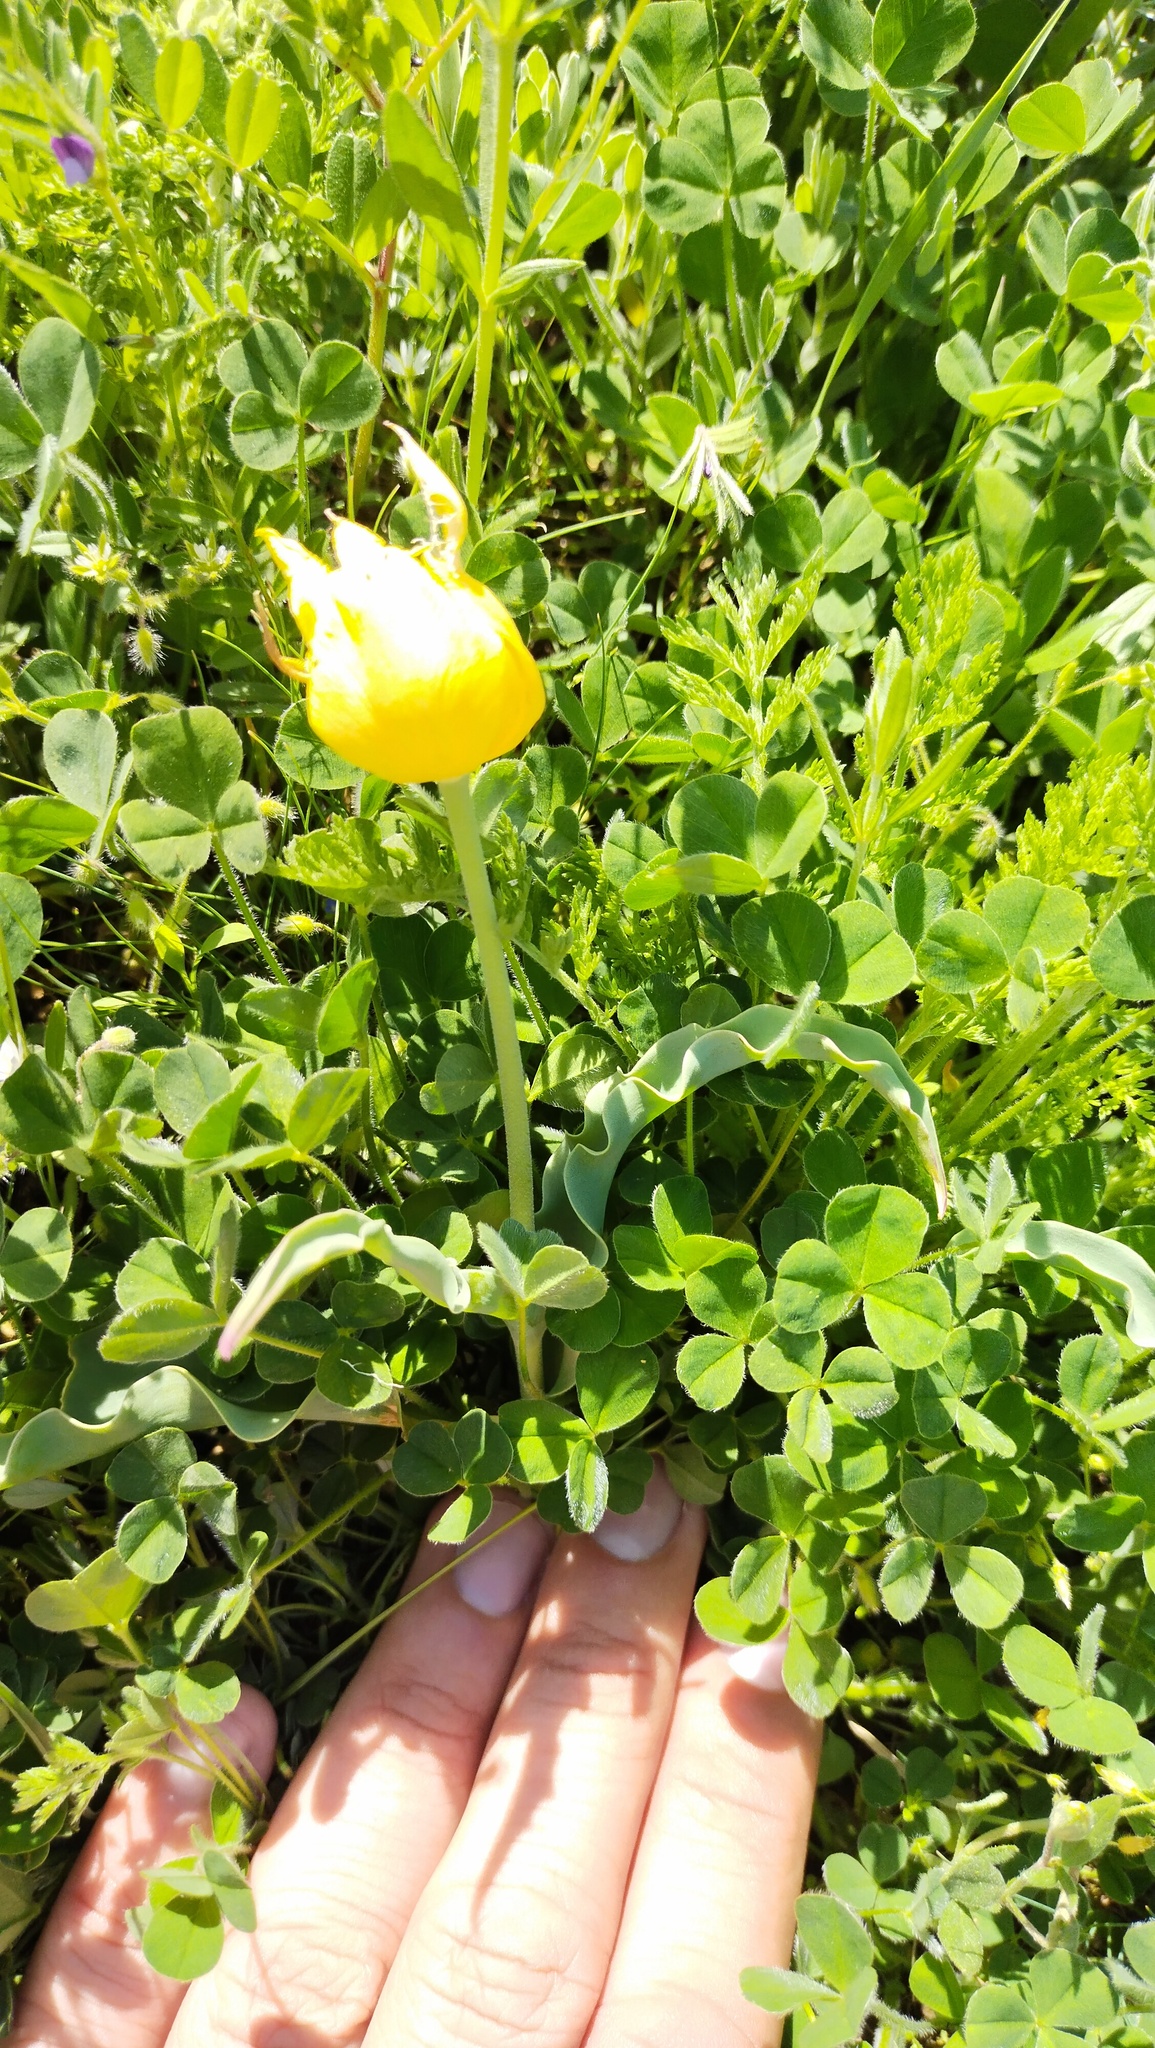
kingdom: Plantae
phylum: Tracheophyta
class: Liliopsida
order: Liliales
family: Liliaceae
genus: Tulipa
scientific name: Tulipa suaveolens
